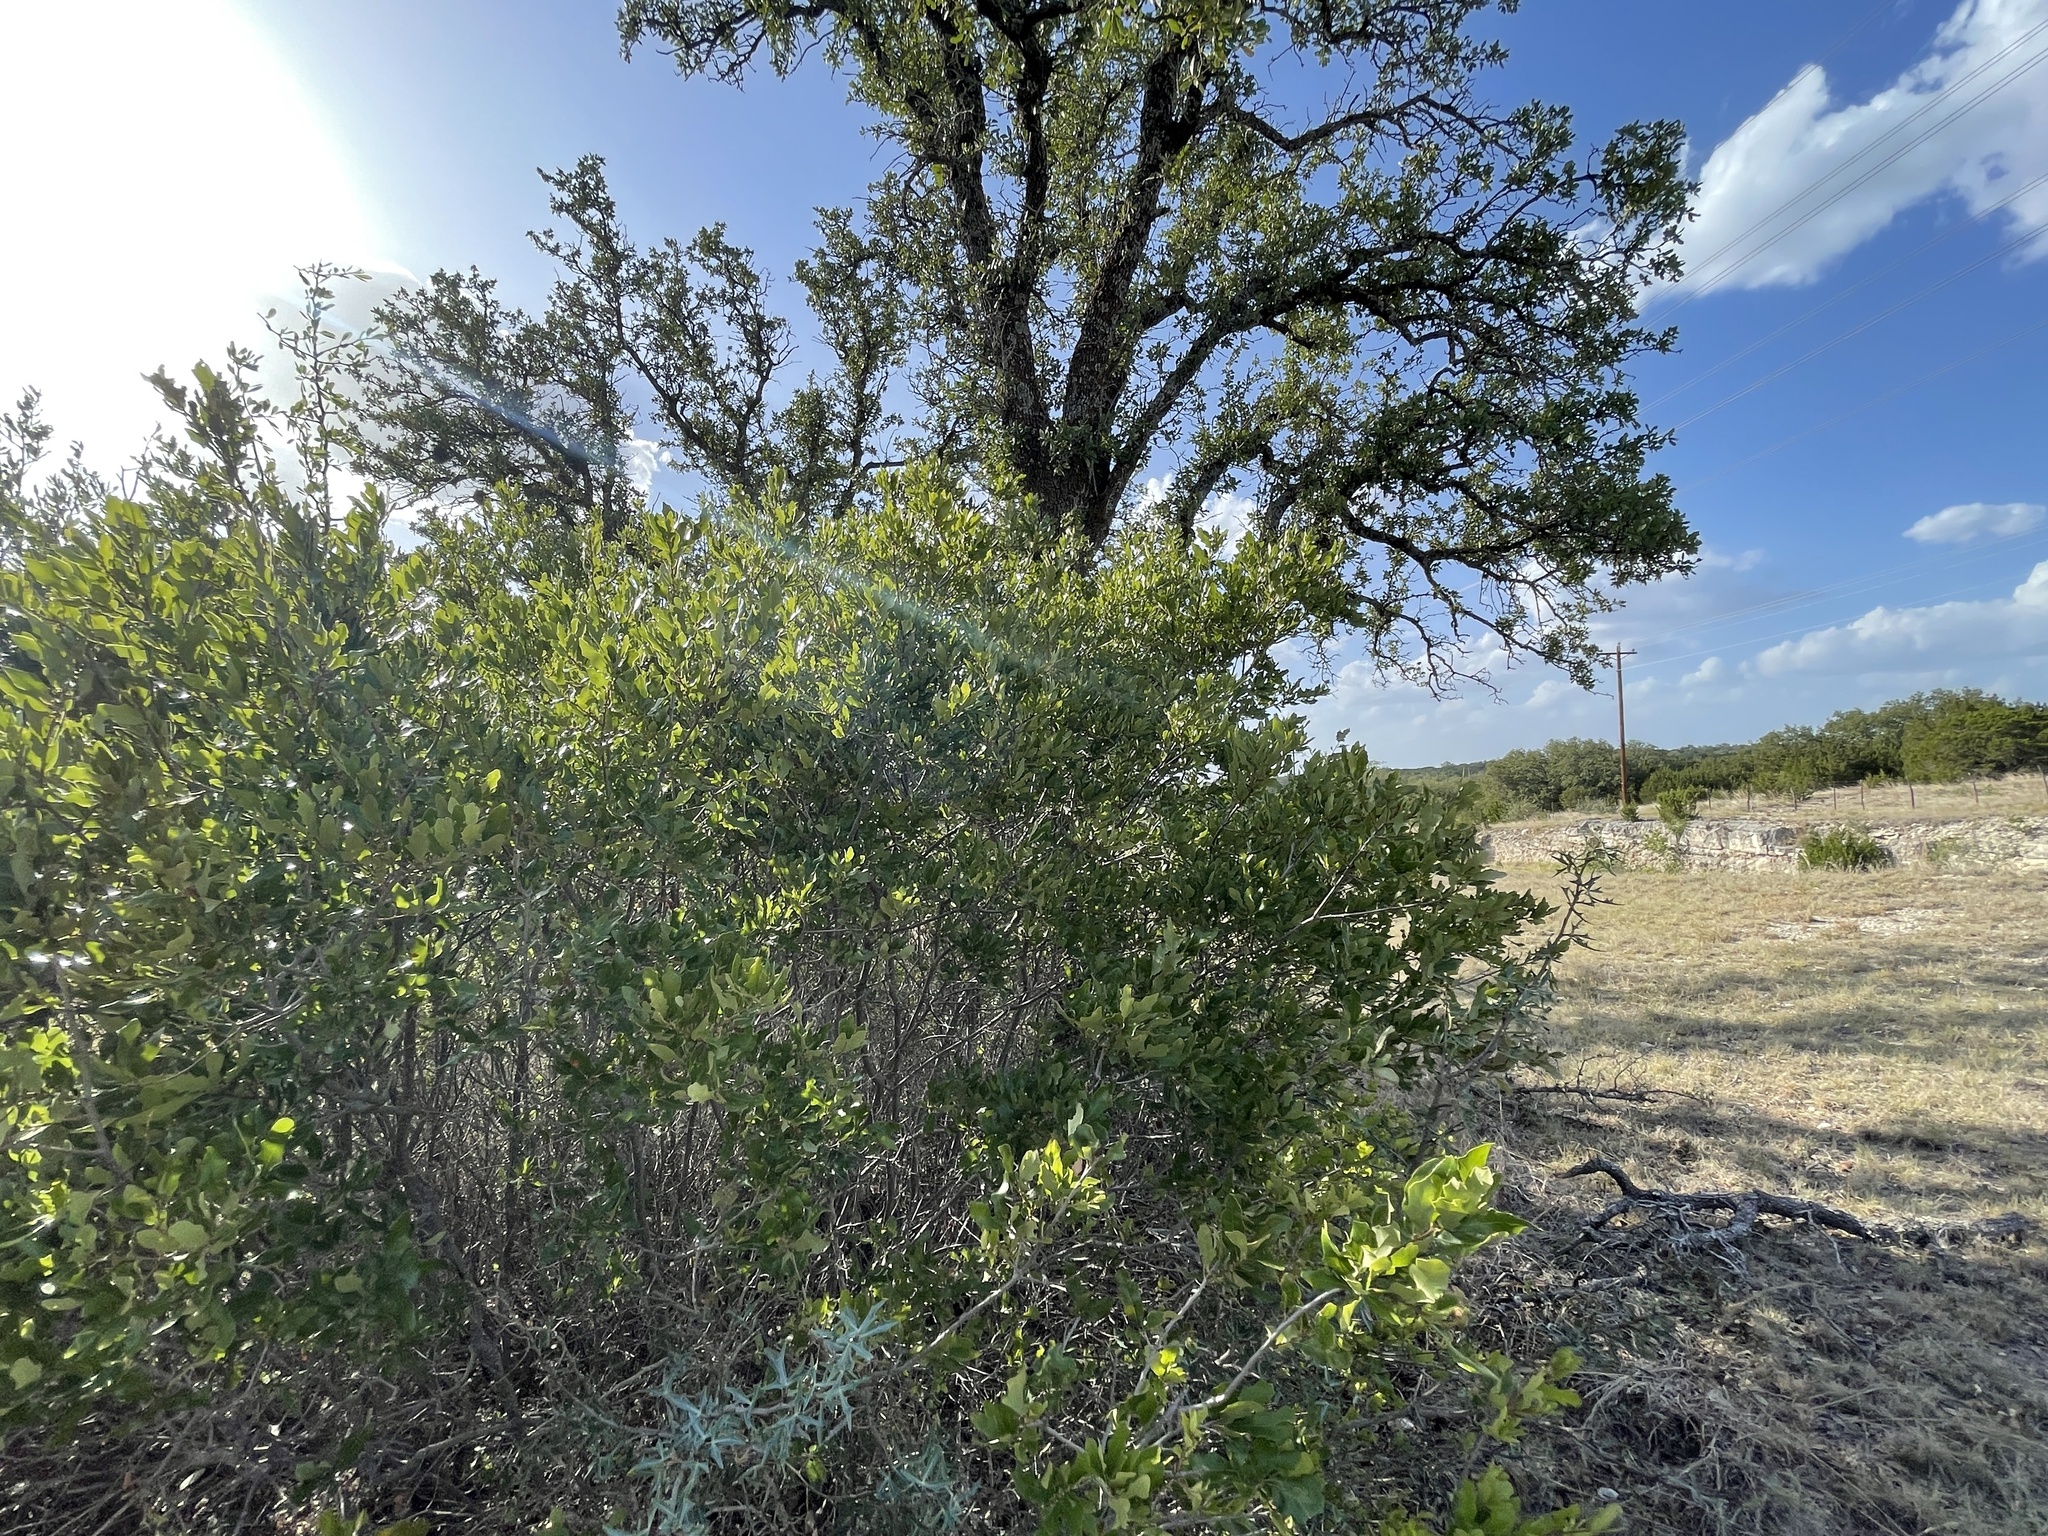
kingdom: Plantae
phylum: Tracheophyta
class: Magnoliopsida
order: Fagales
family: Fagaceae
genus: Quercus
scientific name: Quercus vaseyana
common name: Sandpaper oak
